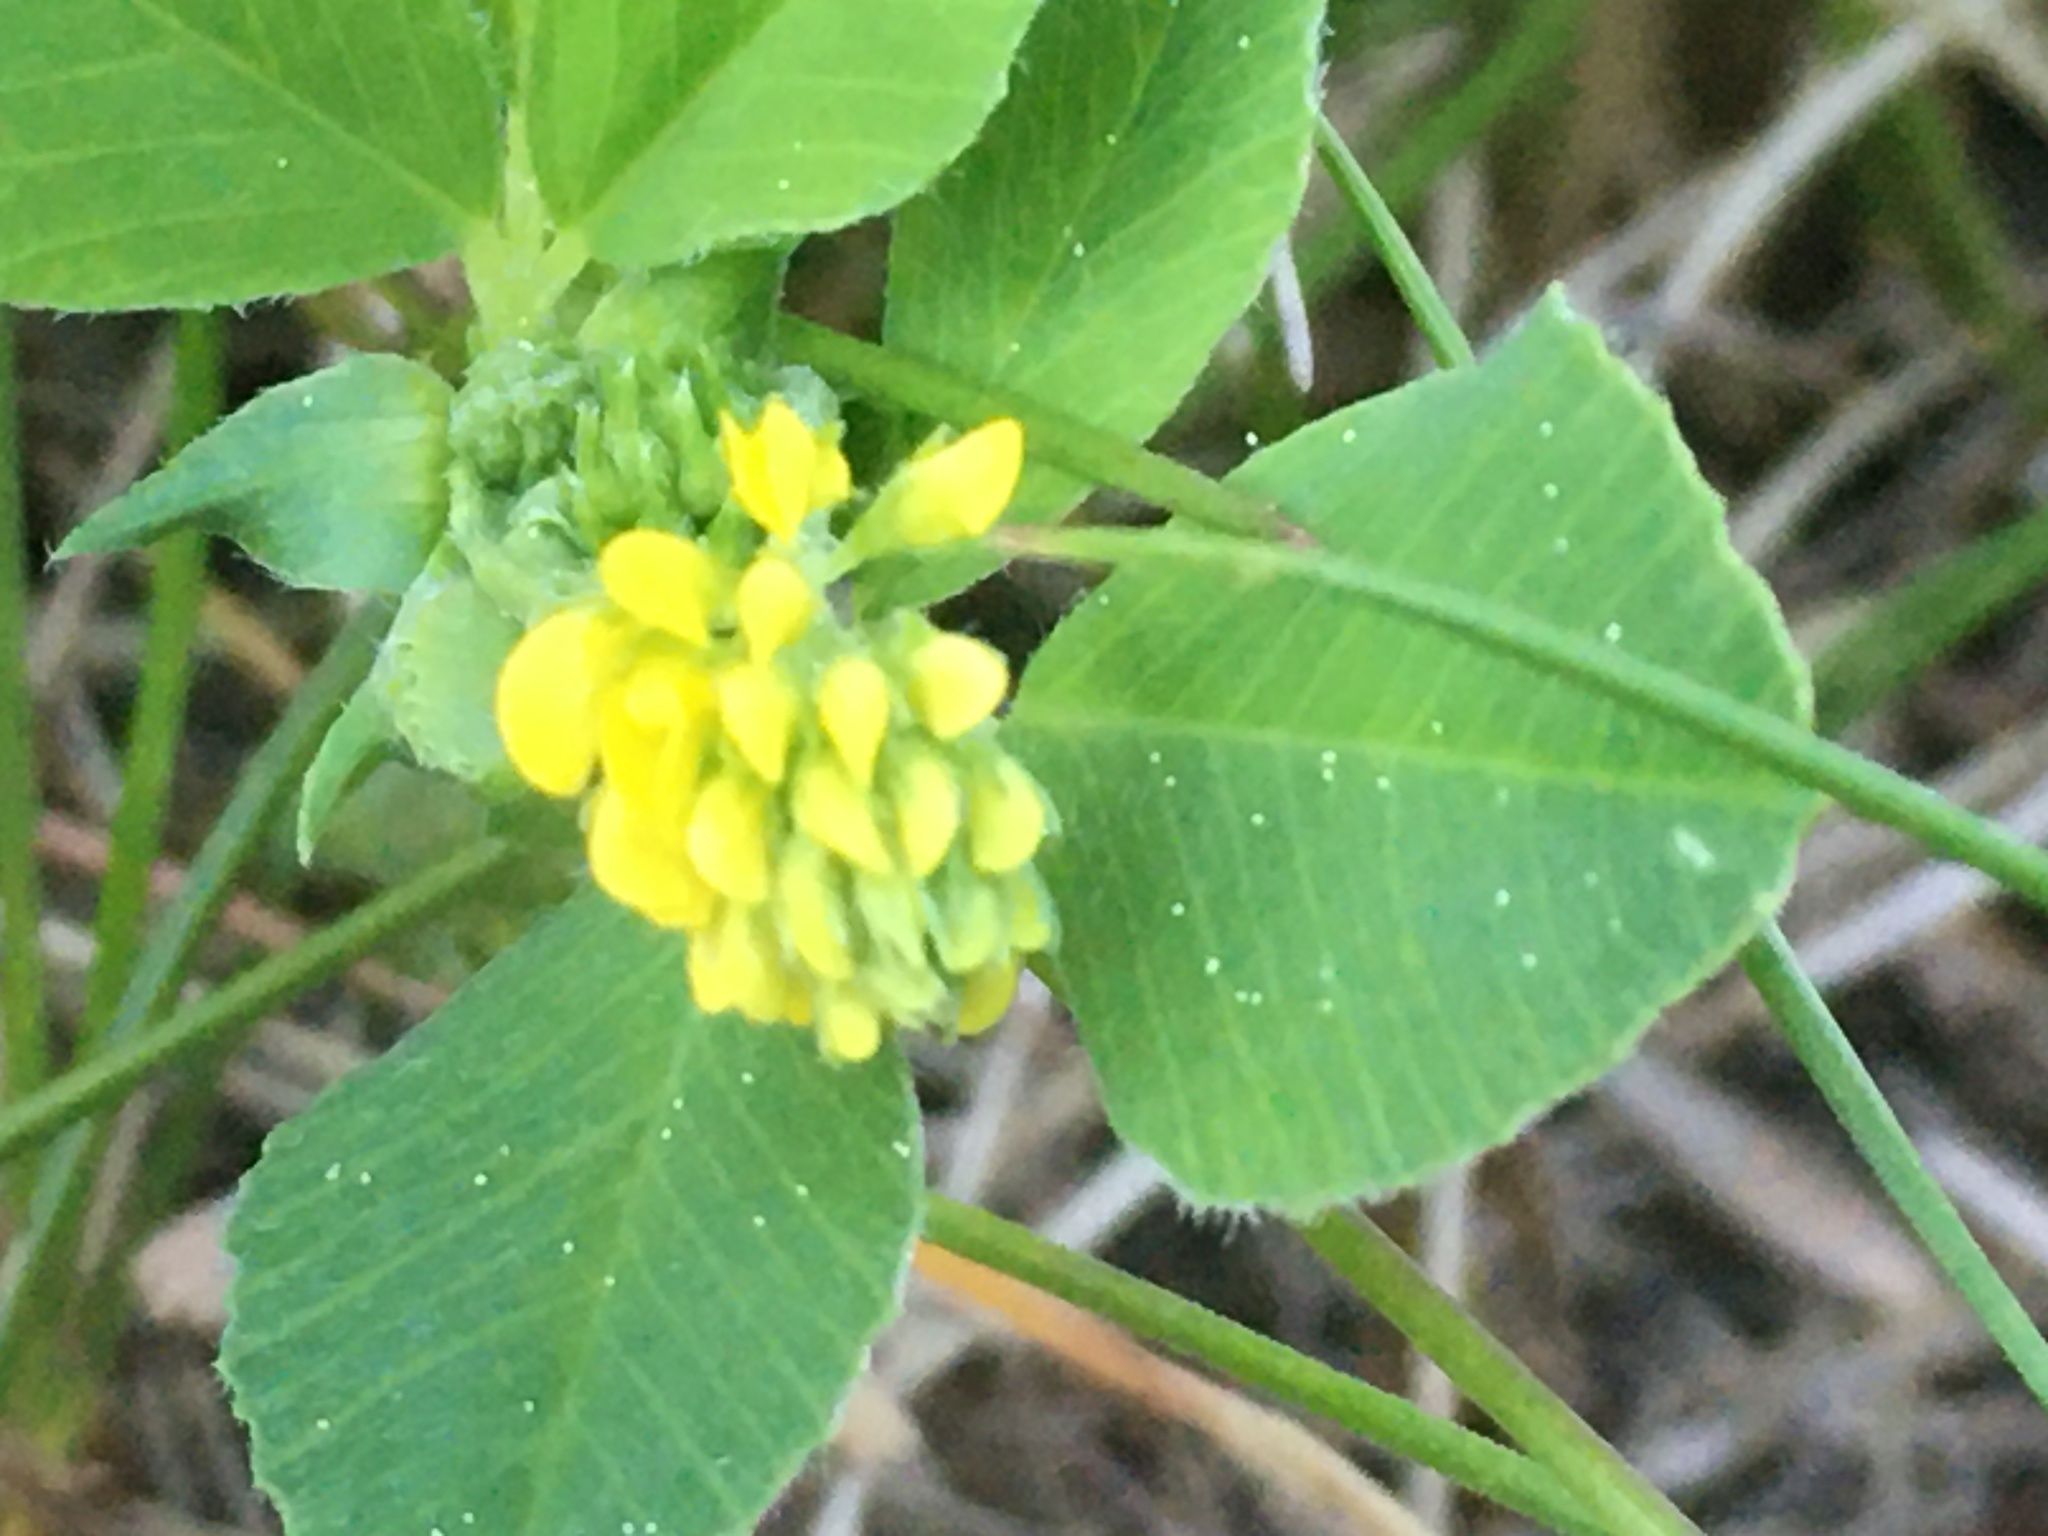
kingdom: Plantae
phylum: Tracheophyta
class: Magnoliopsida
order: Fabales
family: Fabaceae
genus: Medicago
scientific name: Medicago lupulina
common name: Black medick
